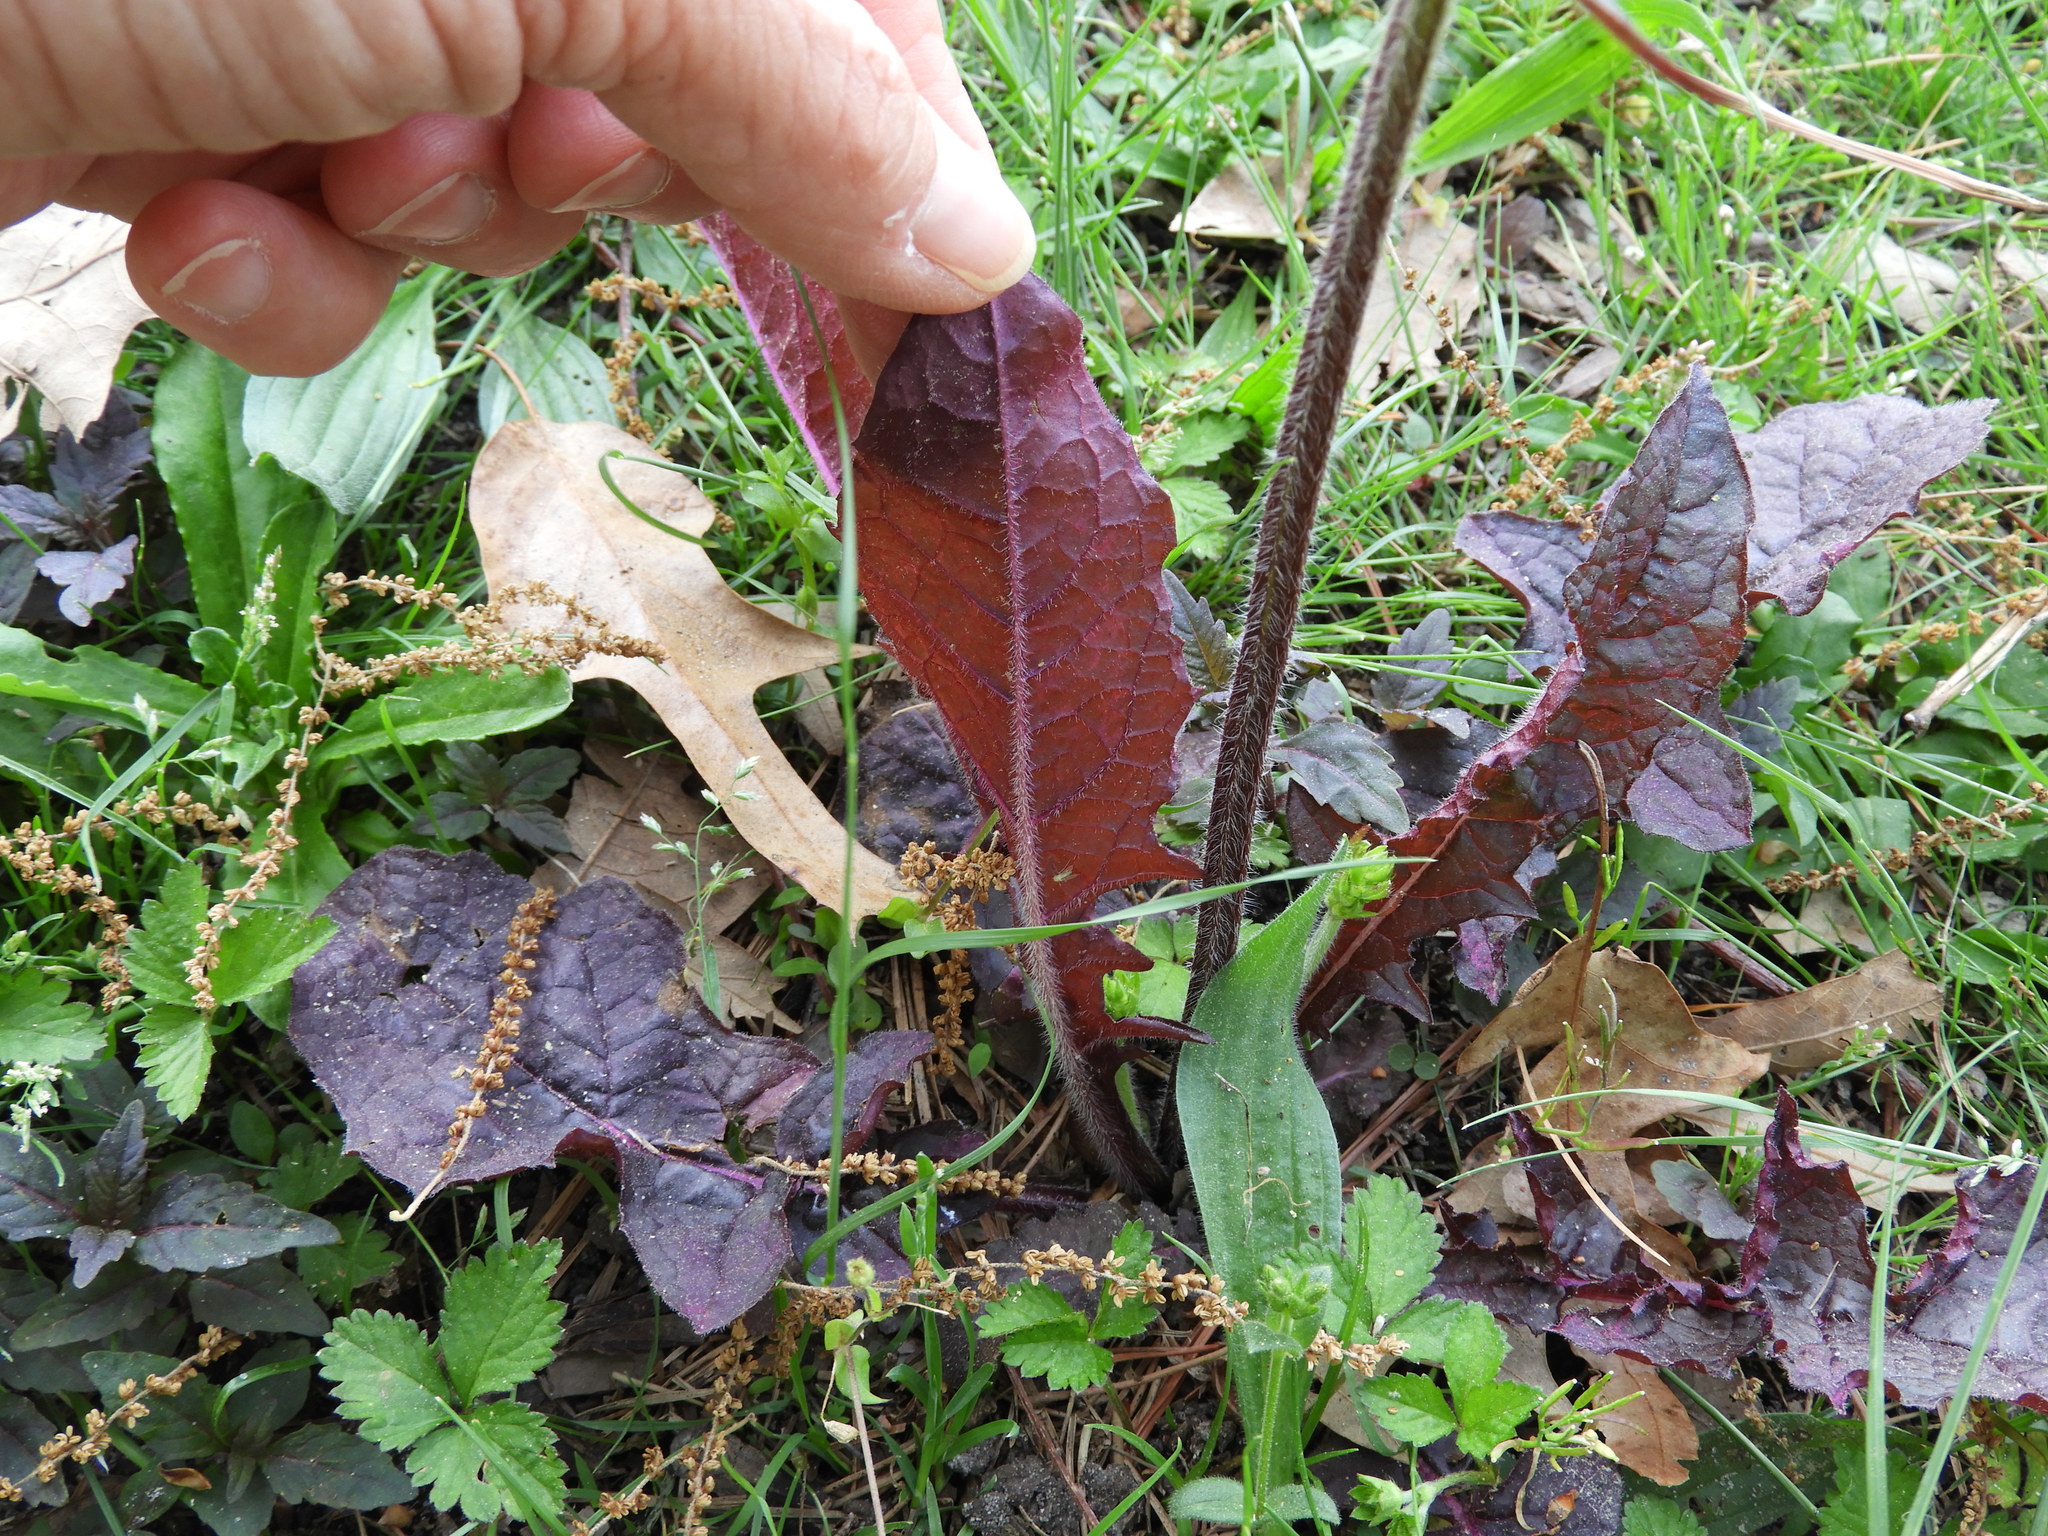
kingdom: Plantae
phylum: Tracheophyta
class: Magnoliopsida
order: Lamiales
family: Lamiaceae
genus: Salvia
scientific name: Salvia lyrata
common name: Cancerweed
